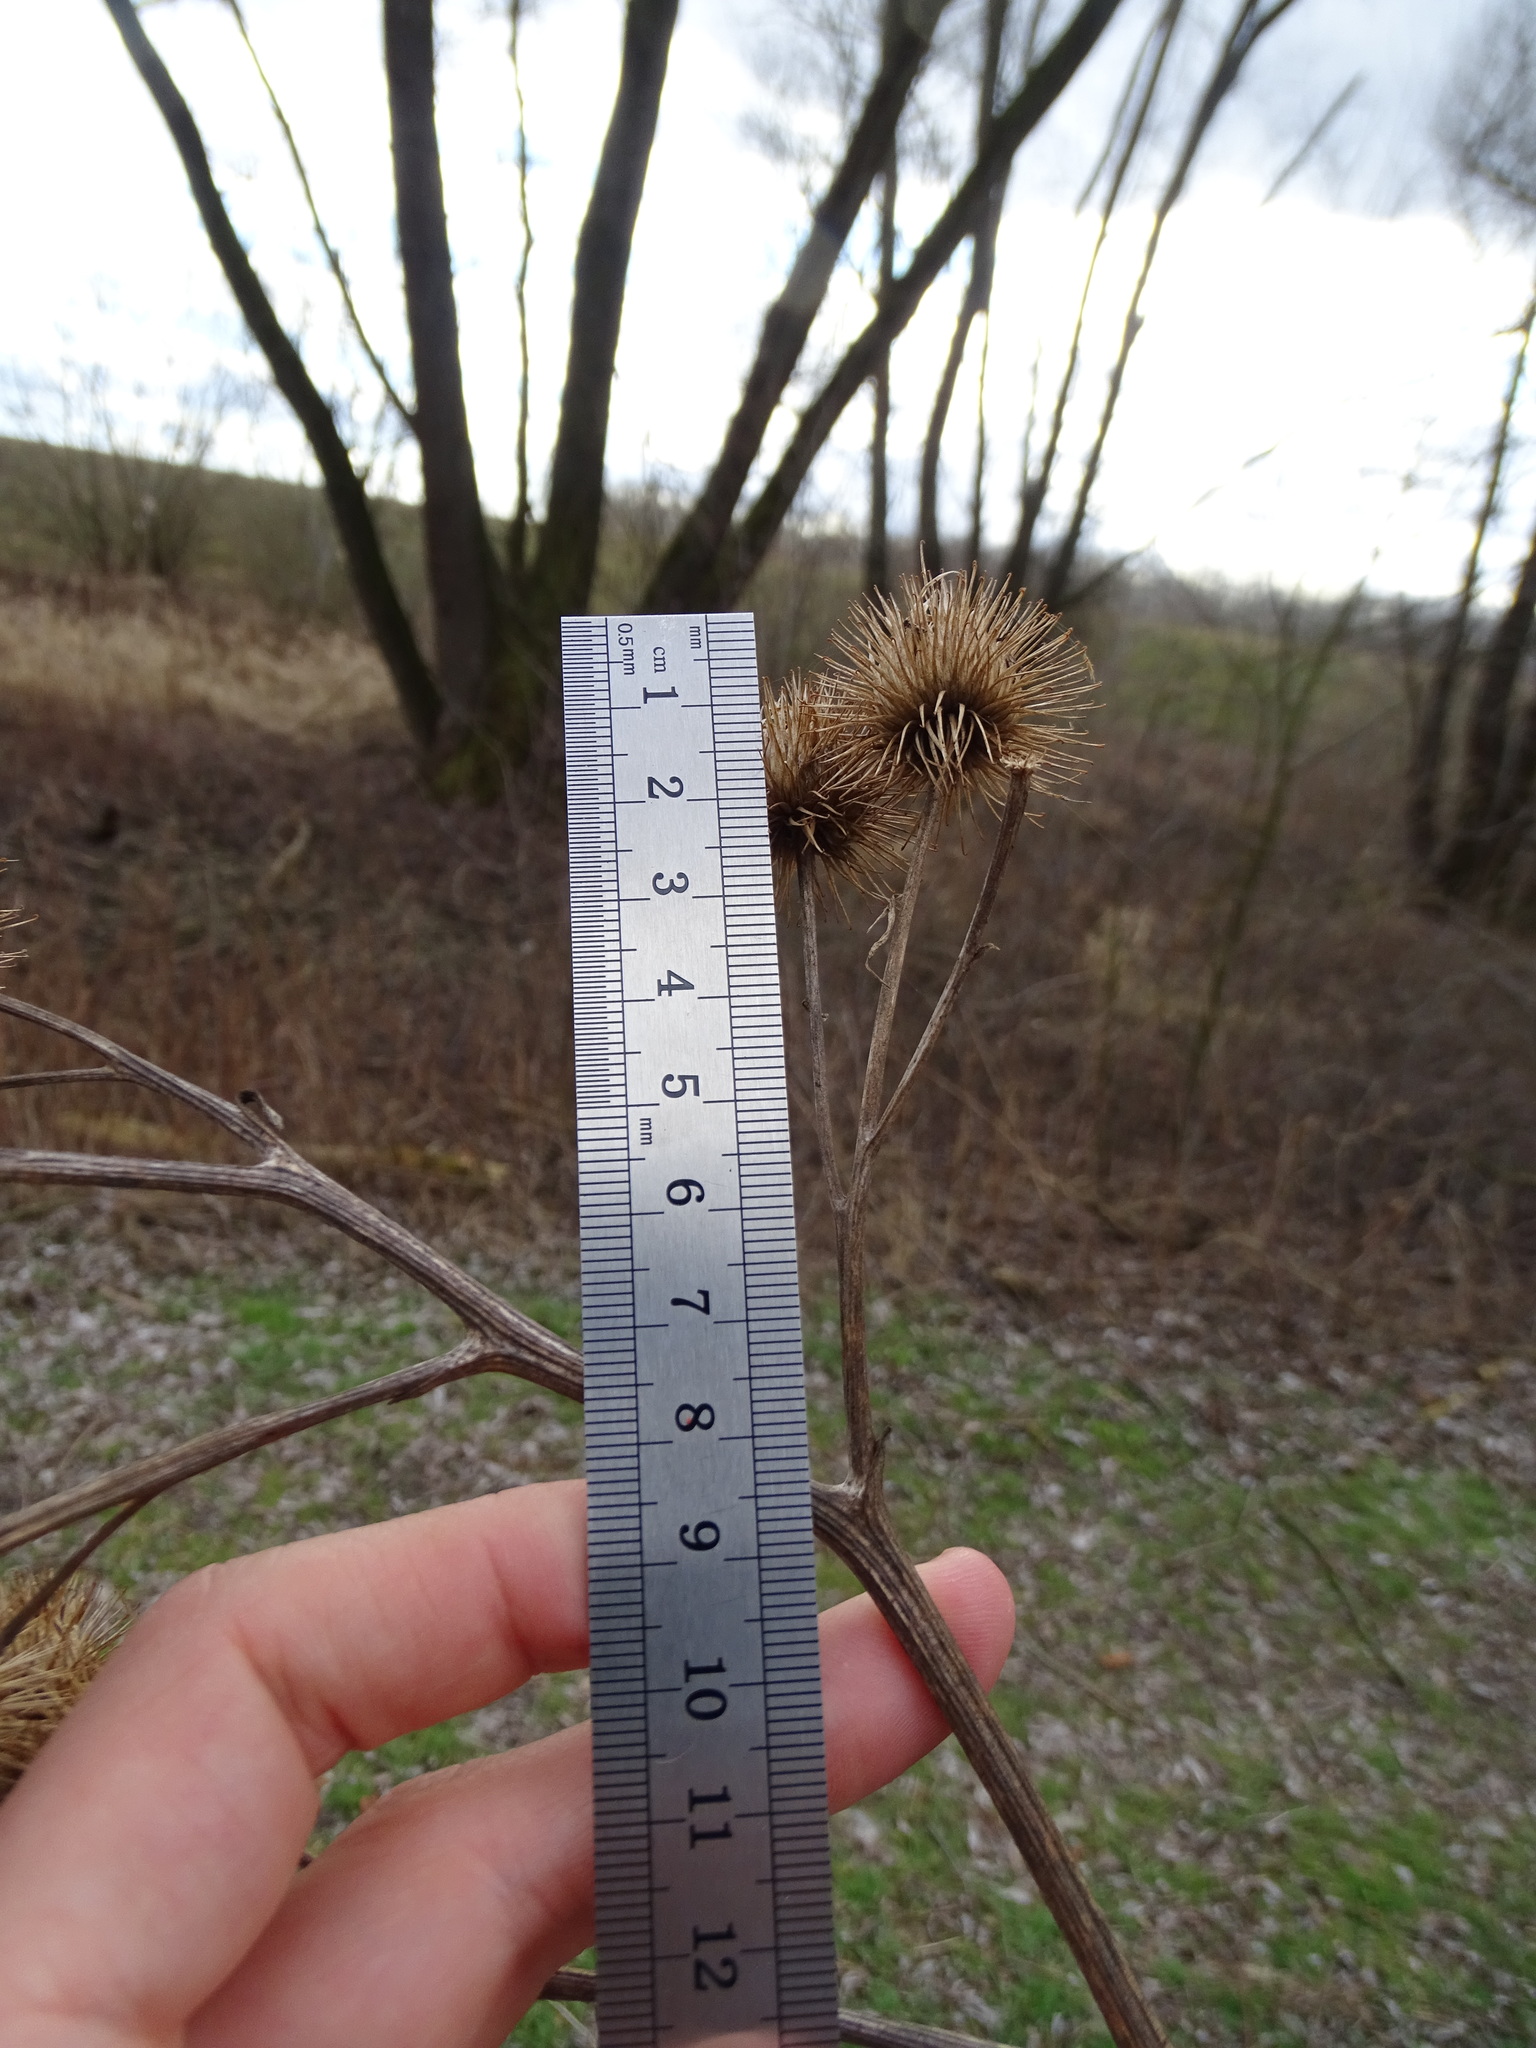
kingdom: Plantae
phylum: Tracheophyta
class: Magnoliopsida
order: Asterales
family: Asteraceae
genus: Arctium
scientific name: Arctium lappa
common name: Greater burdock
